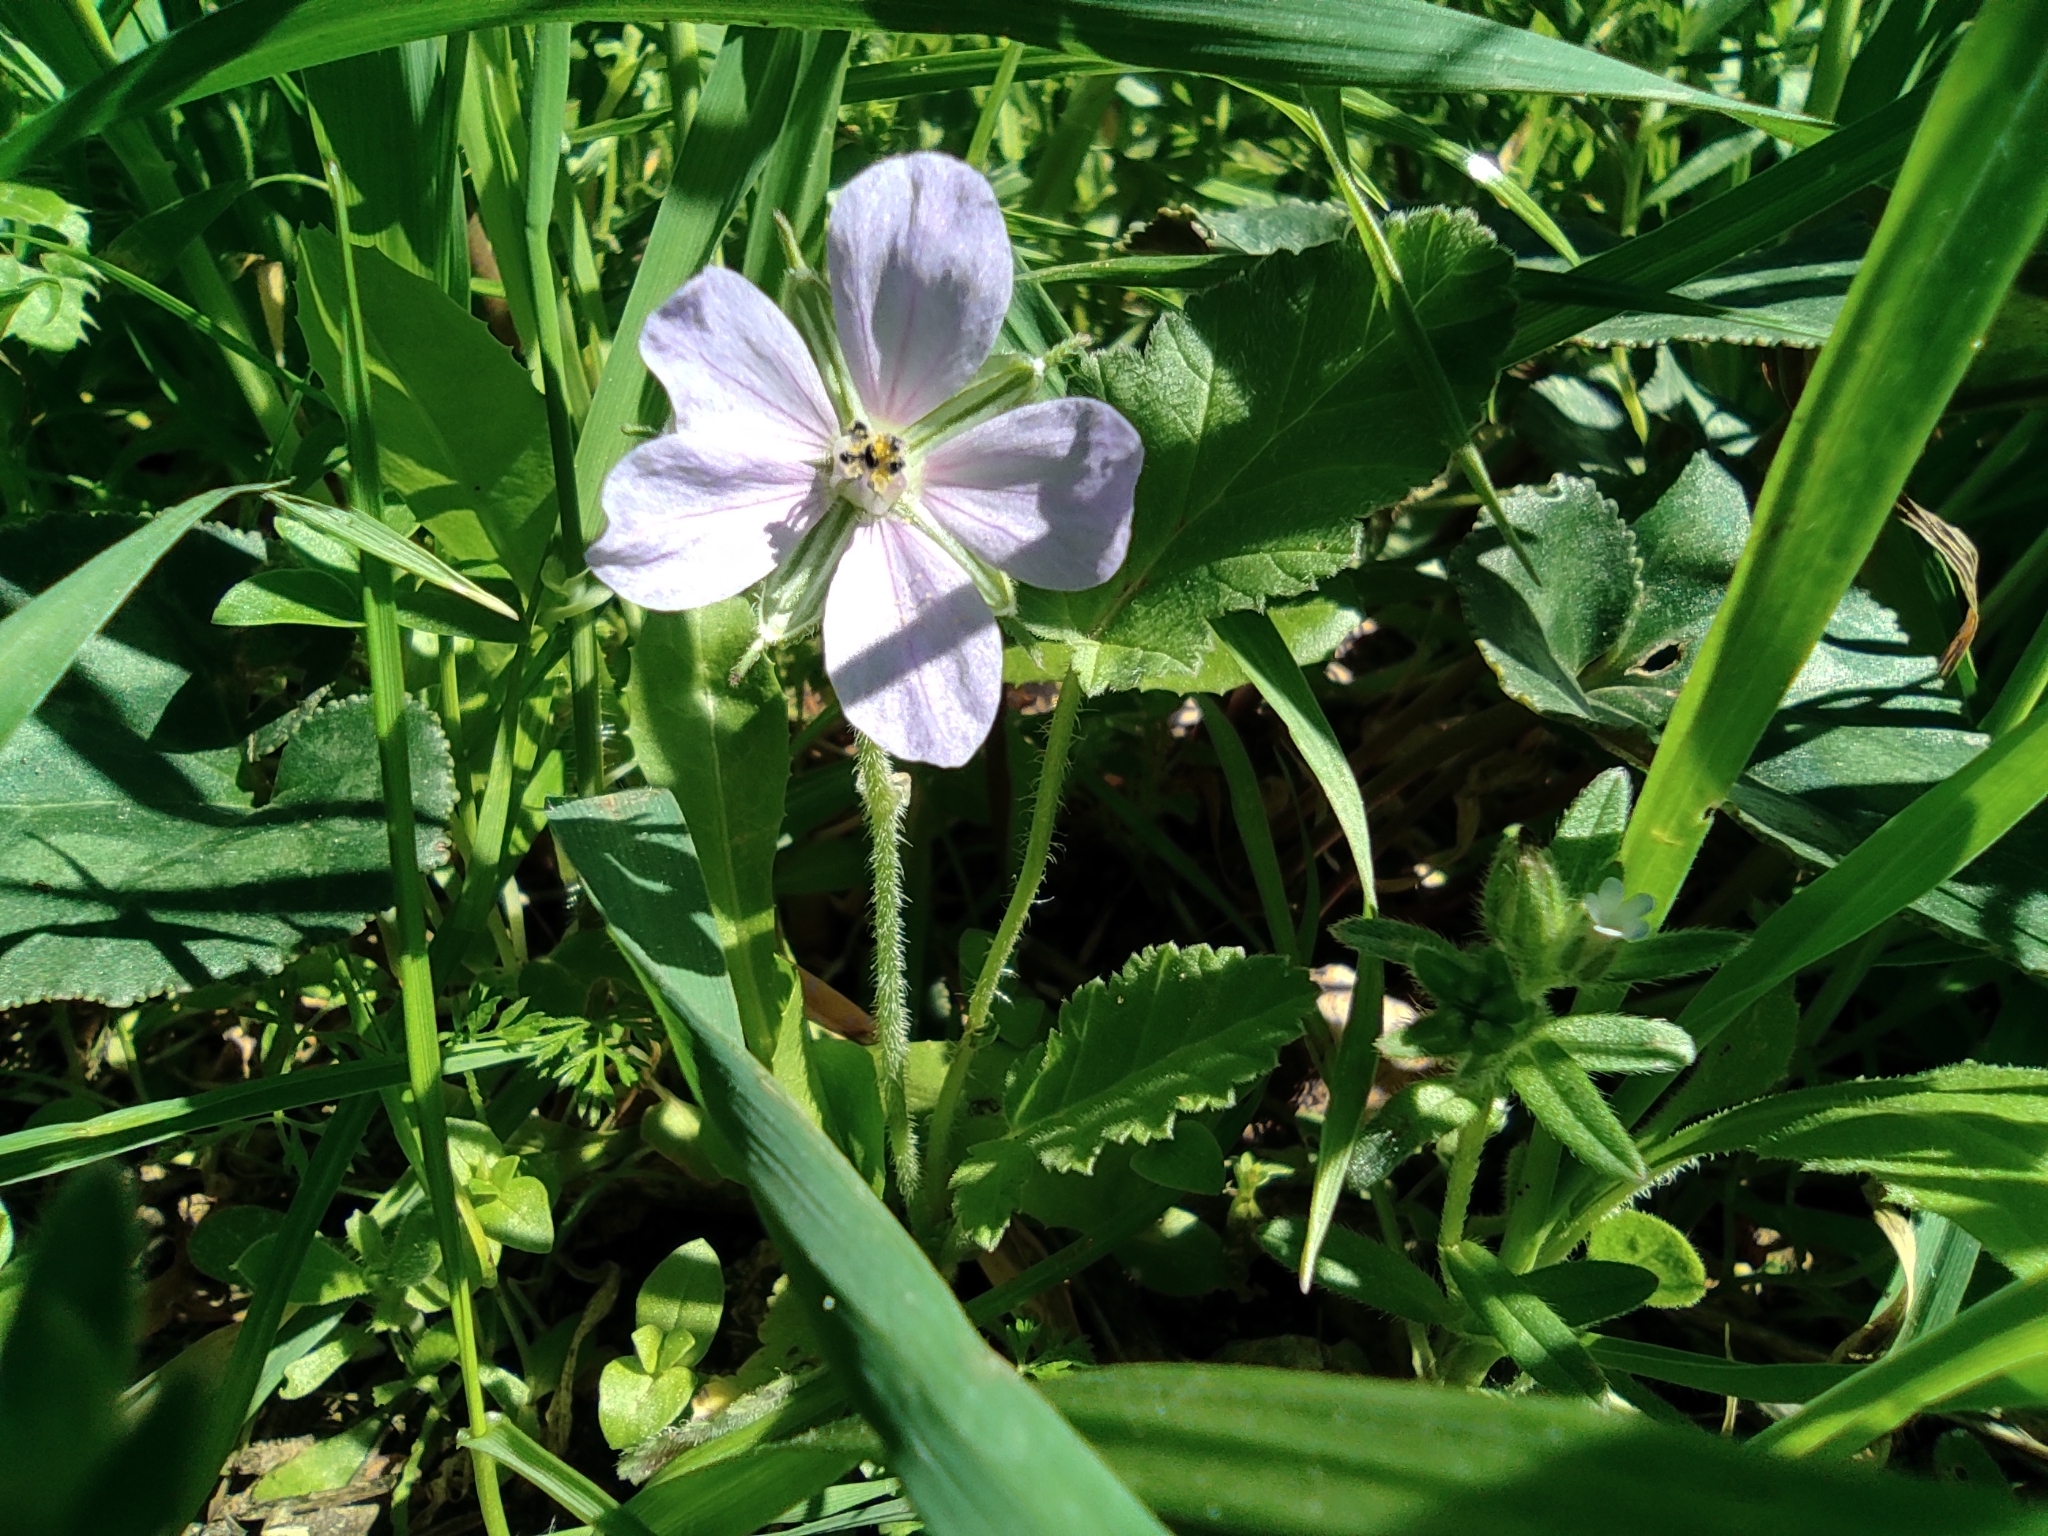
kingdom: Plantae
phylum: Tracheophyta
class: Magnoliopsida
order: Geraniales
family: Geraniaceae
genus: Erodium
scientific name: Erodium gruinum
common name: Iranian stork's bill
